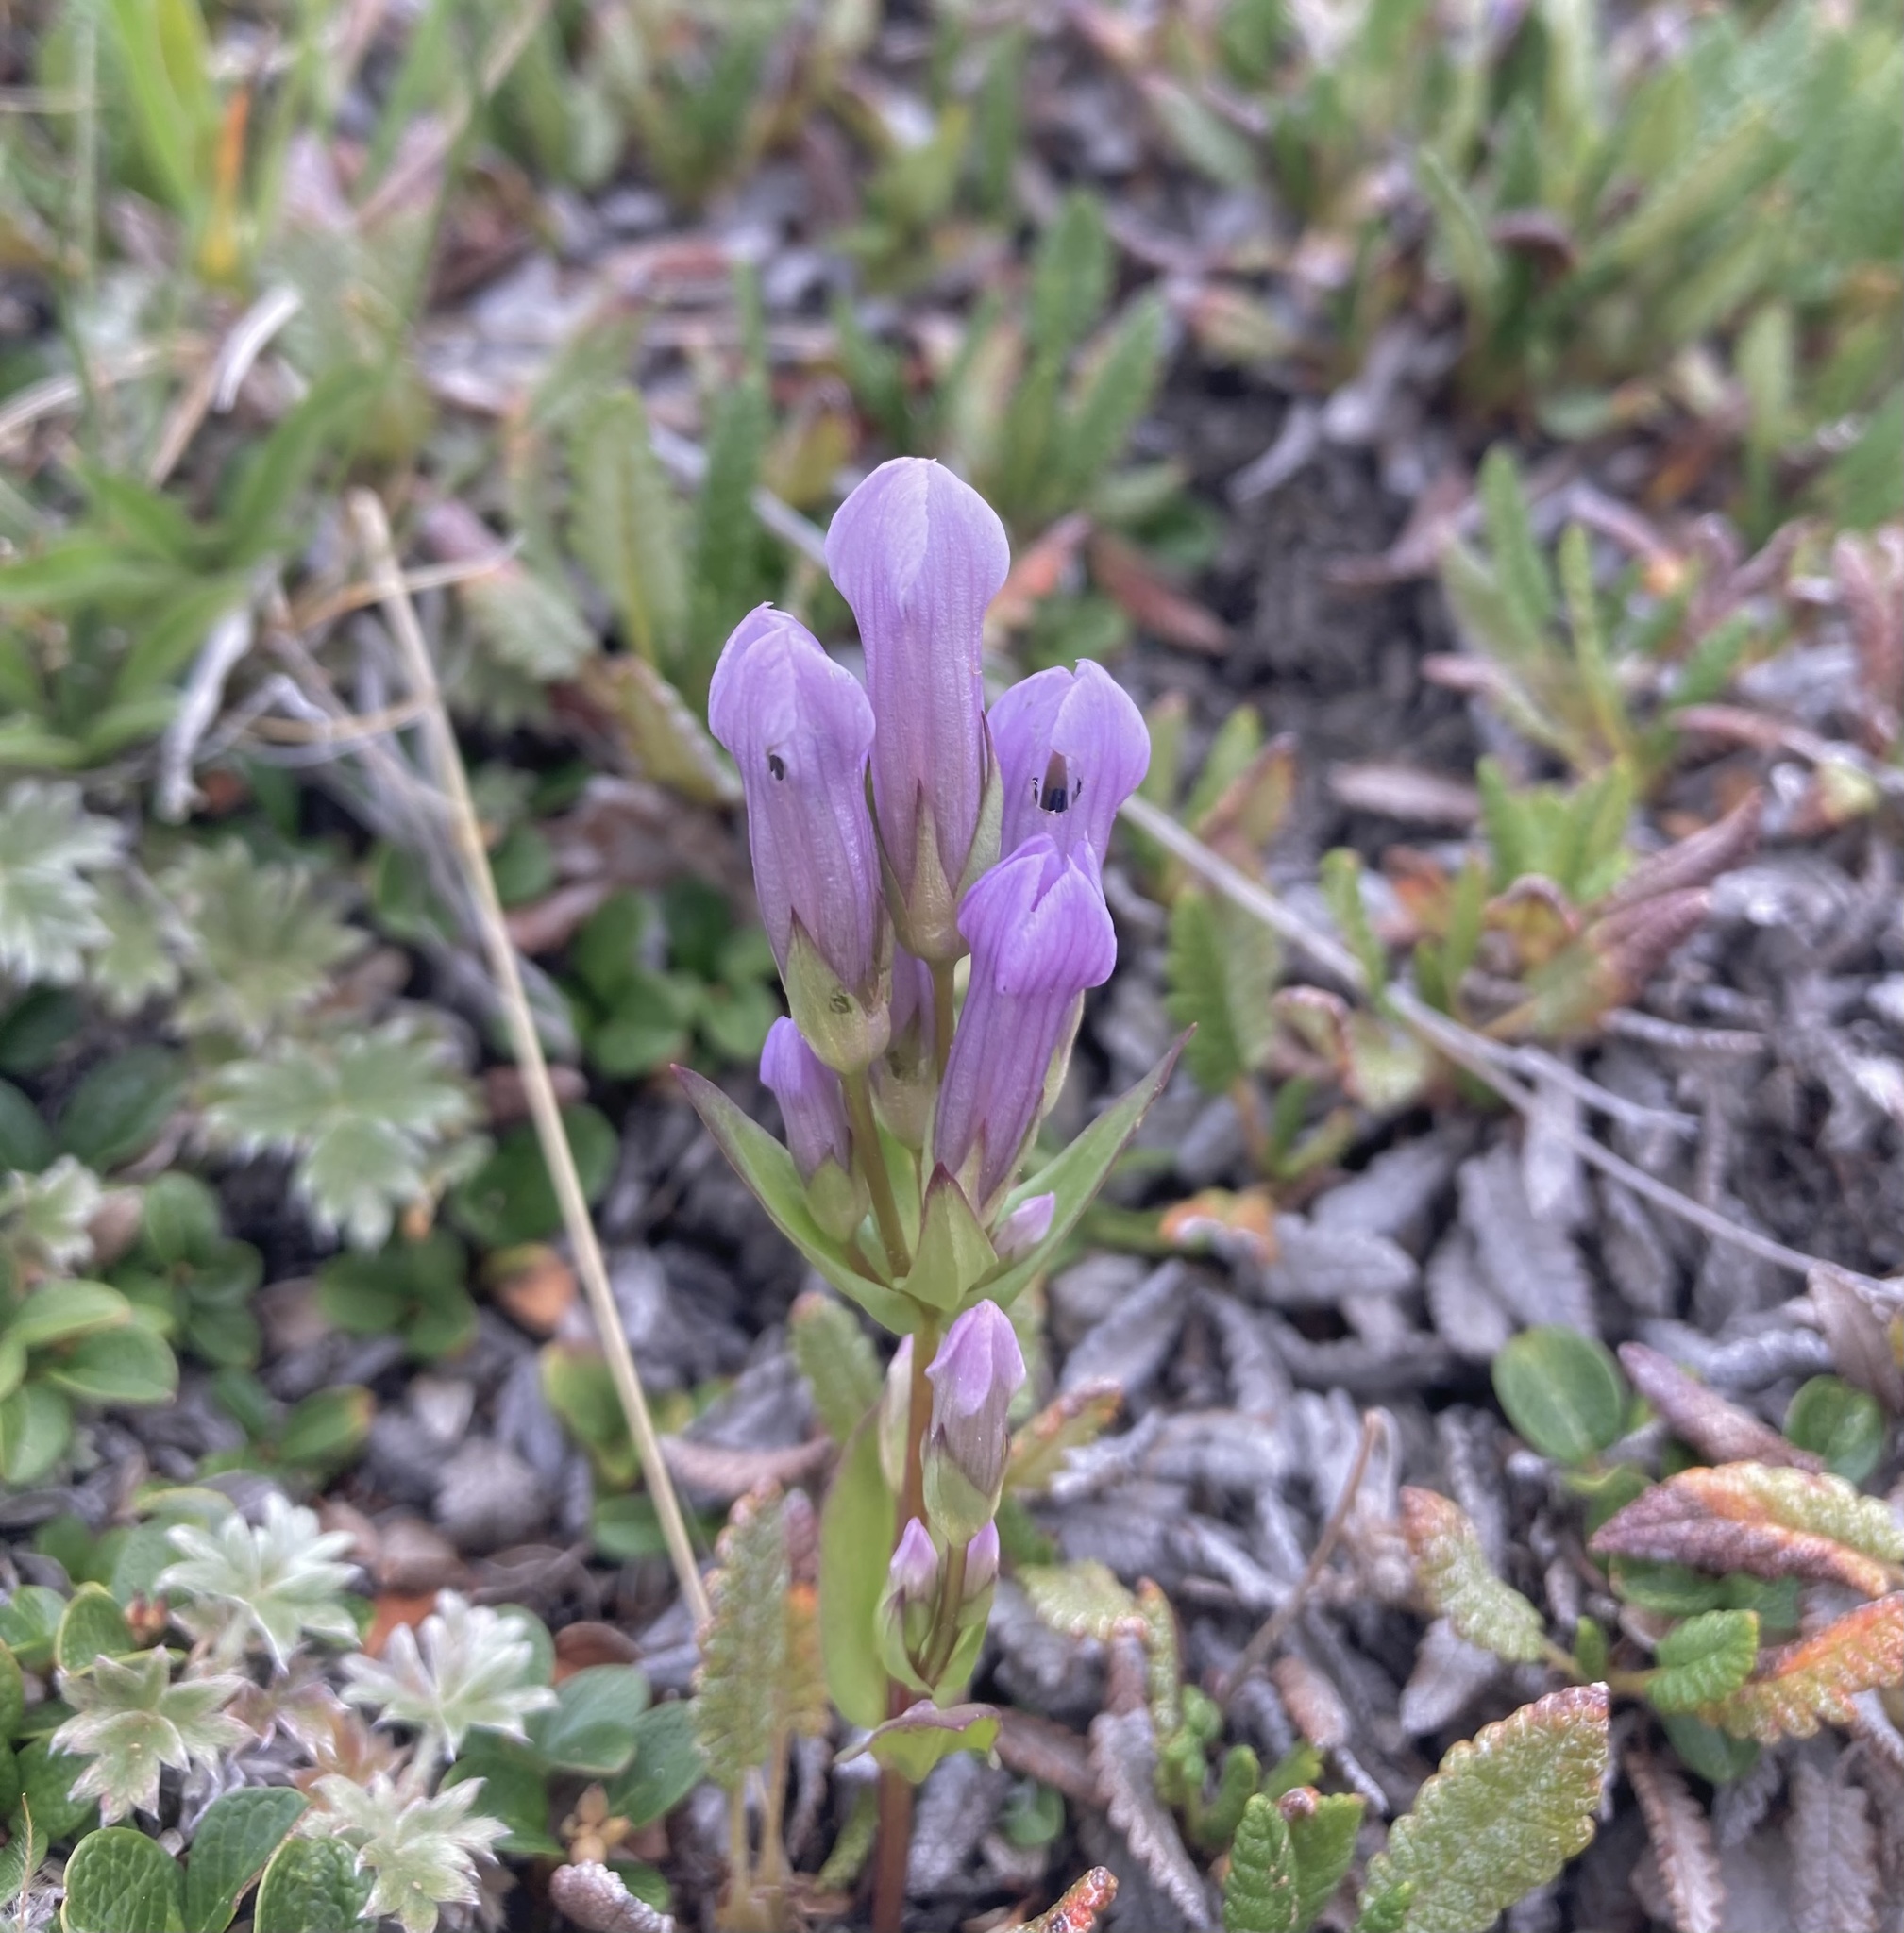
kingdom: Plantae
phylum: Tracheophyta
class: Magnoliopsida
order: Gentianales
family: Gentianaceae
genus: Gentianella
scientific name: Gentianella propinqua
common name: Four-parted dwarf-gentian
